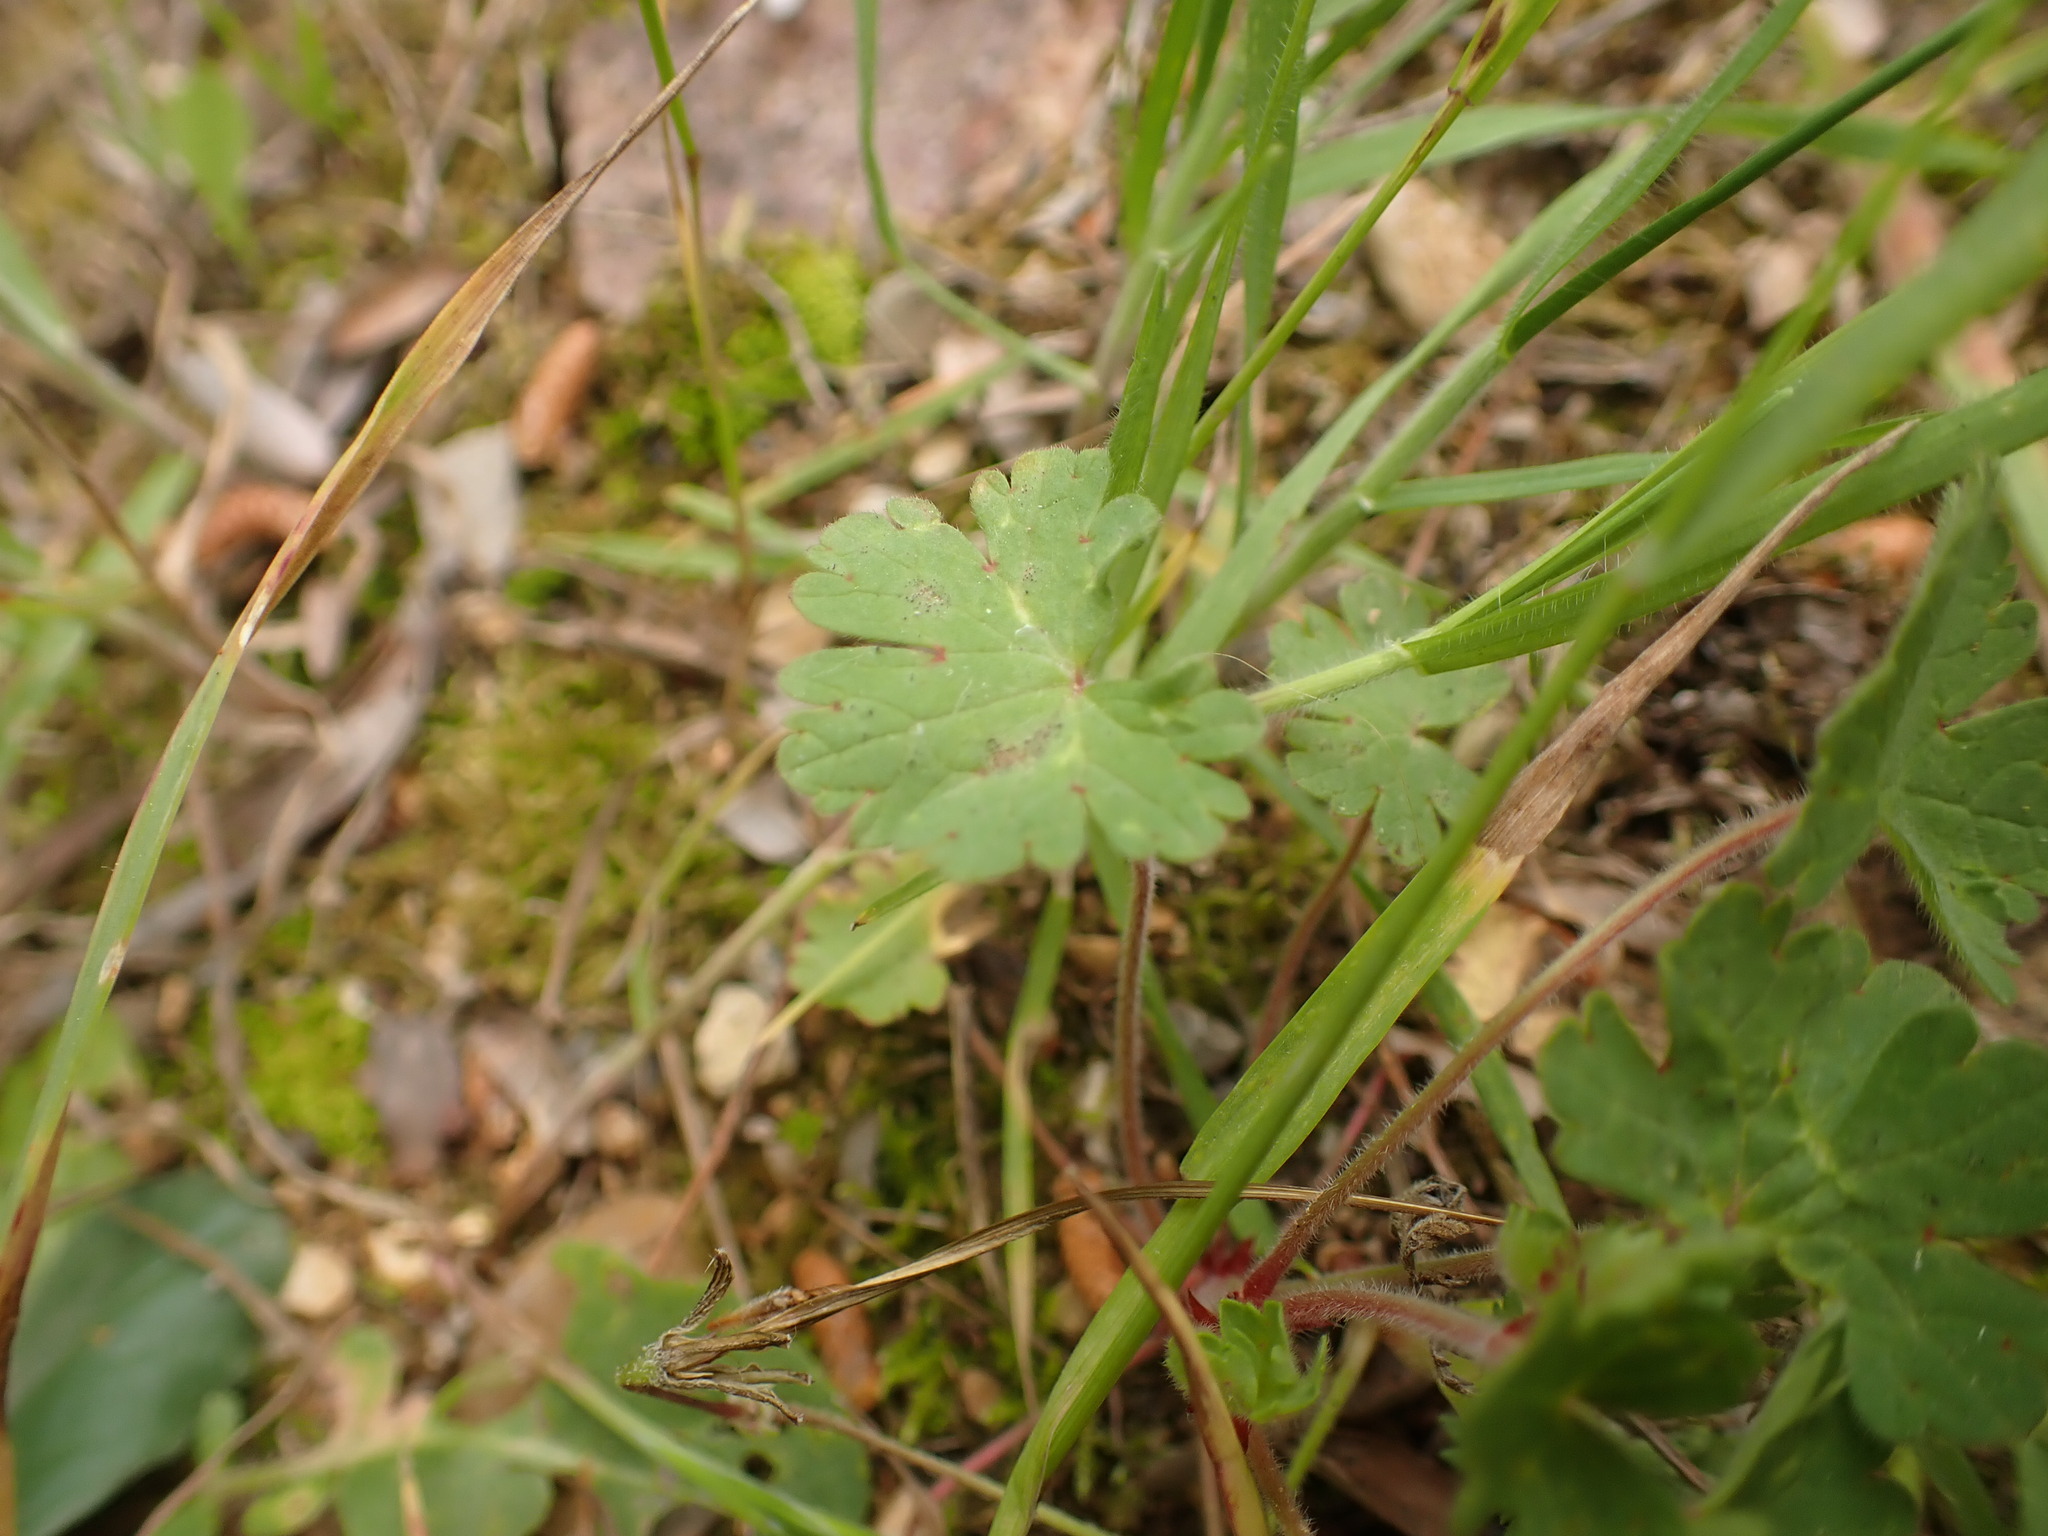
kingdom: Plantae
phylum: Tracheophyta
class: Magnoliopsida
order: Geraniales
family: Geraniaceae
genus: Geranium
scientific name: Geranium rotundifolium
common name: Round-leaved crane's-bill
